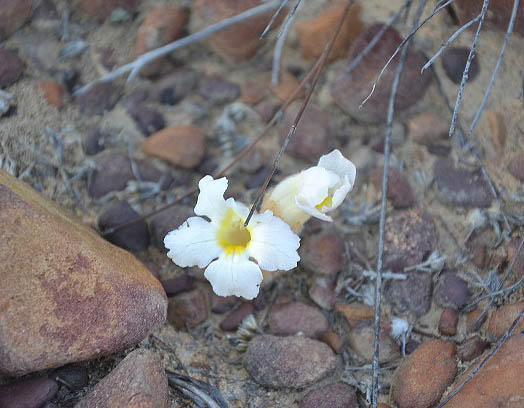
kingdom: Plantae
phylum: Tracheophyta
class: Magnoliopsida
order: Lamiales
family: Orobanchaceae
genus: Harveya
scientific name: Harveya capensis
